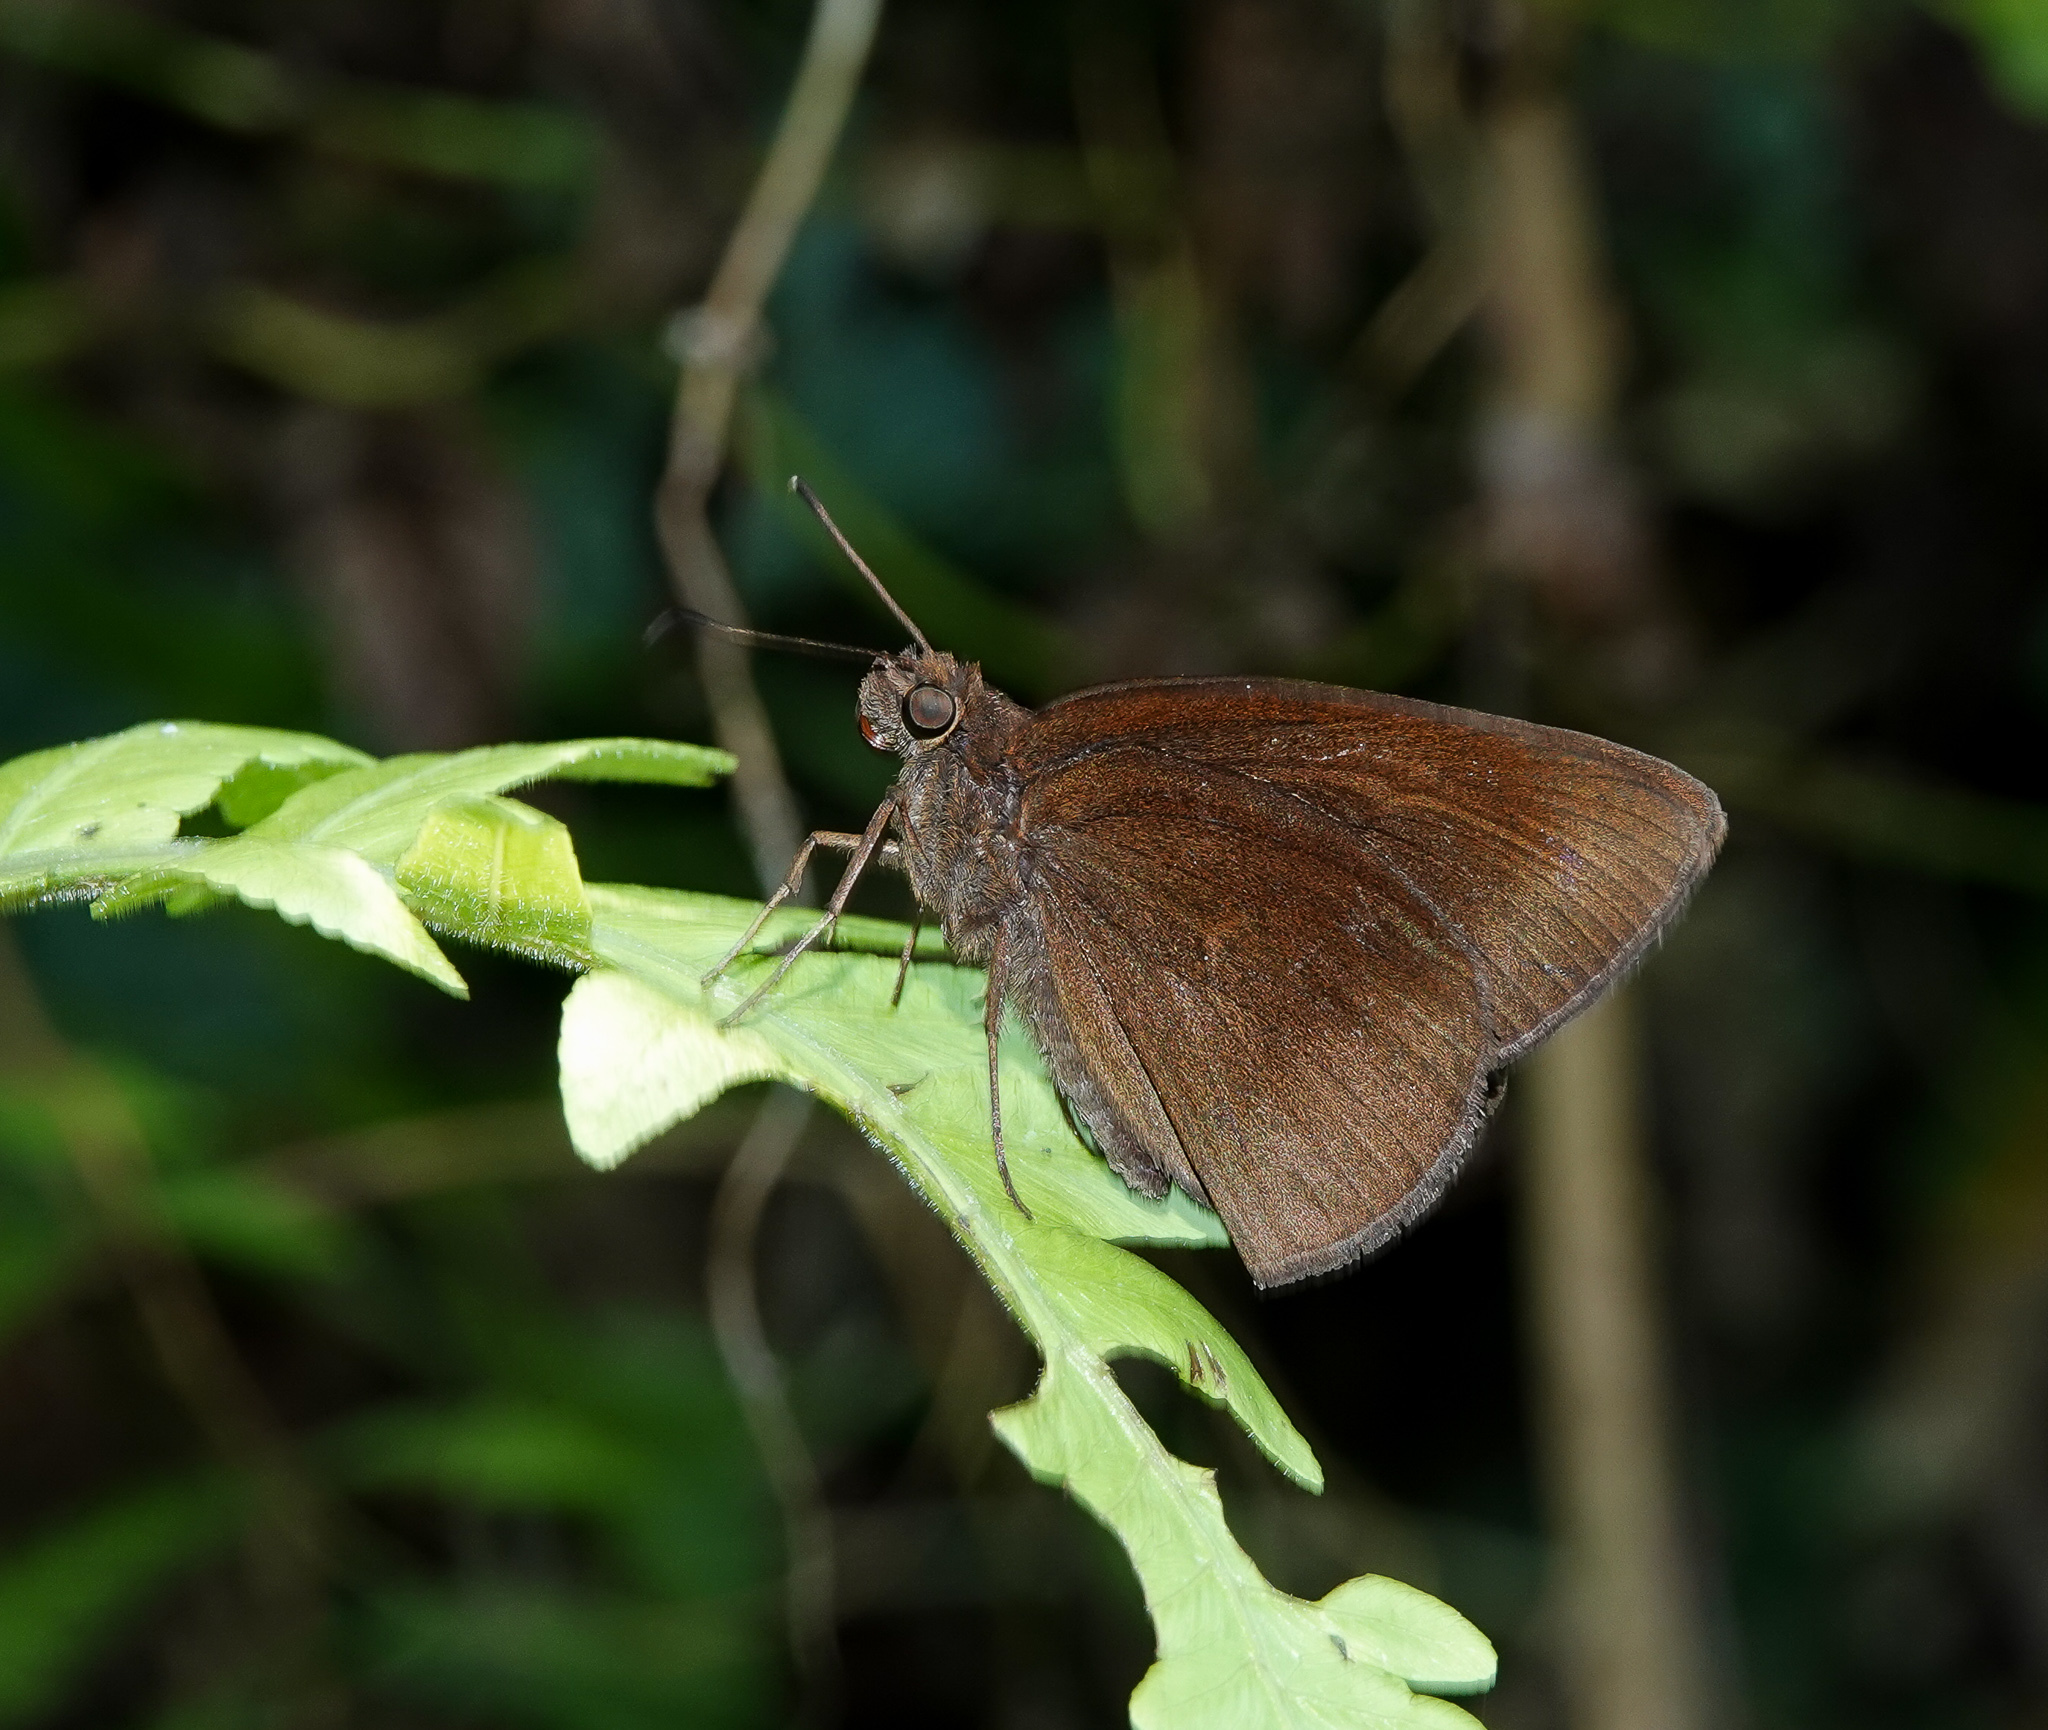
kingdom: Animalia
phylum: Arthropoda
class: Insecta
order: Lepidoptera
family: Hesperiidae
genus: Ancistroides
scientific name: Ancistroides nigrita
